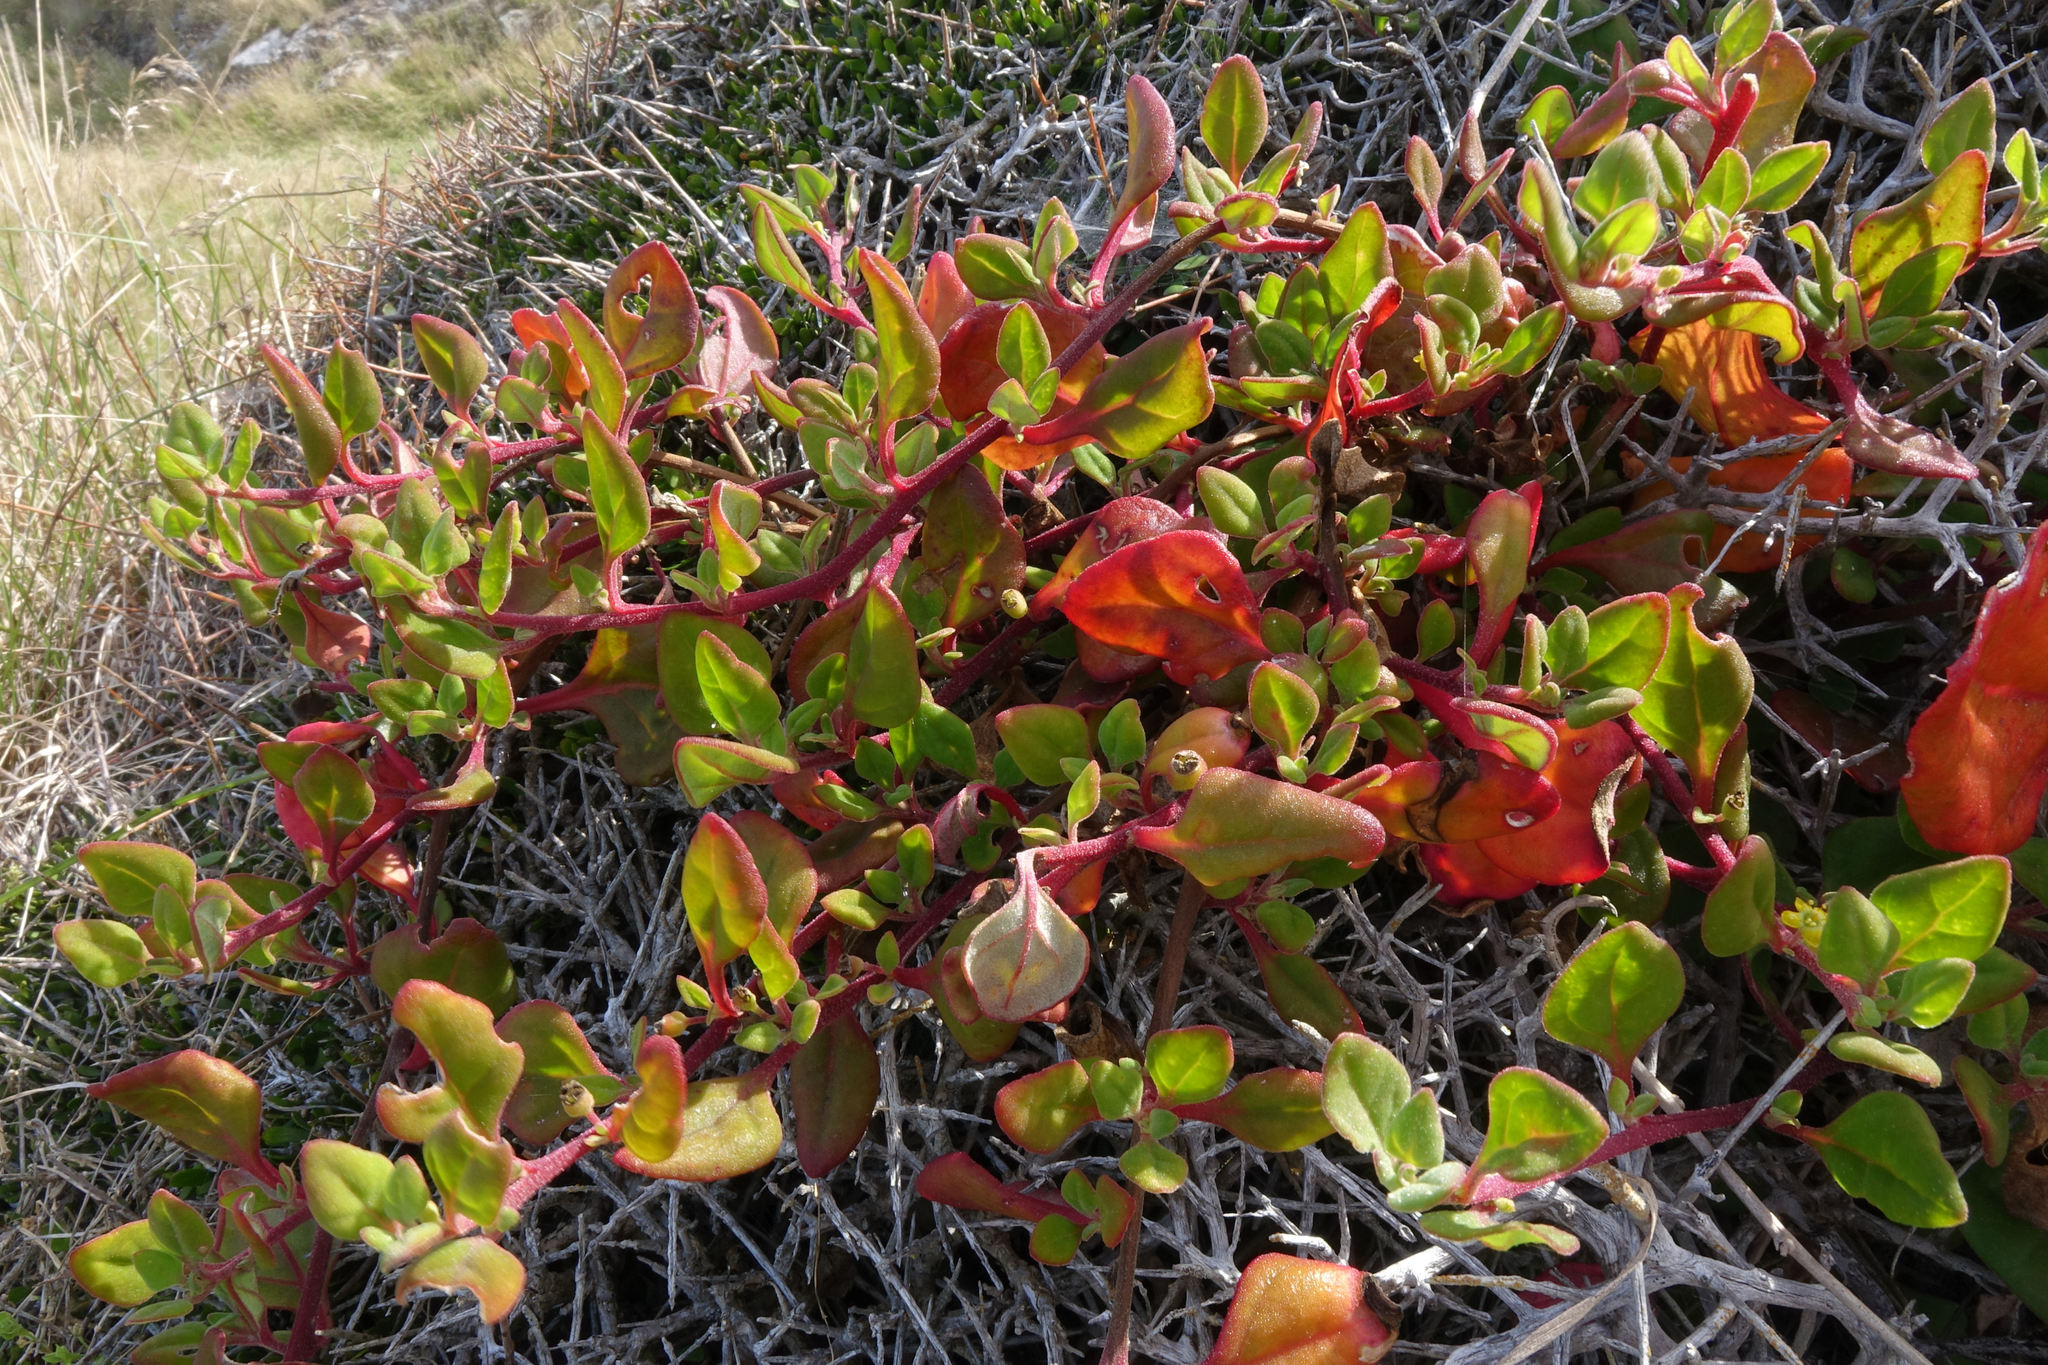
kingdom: Plantae
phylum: Tracheophyta
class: Magnoliopsida
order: Caryophyllales
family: Aizoaceae
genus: Tetragonia
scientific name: Tetragonia implexicoma
